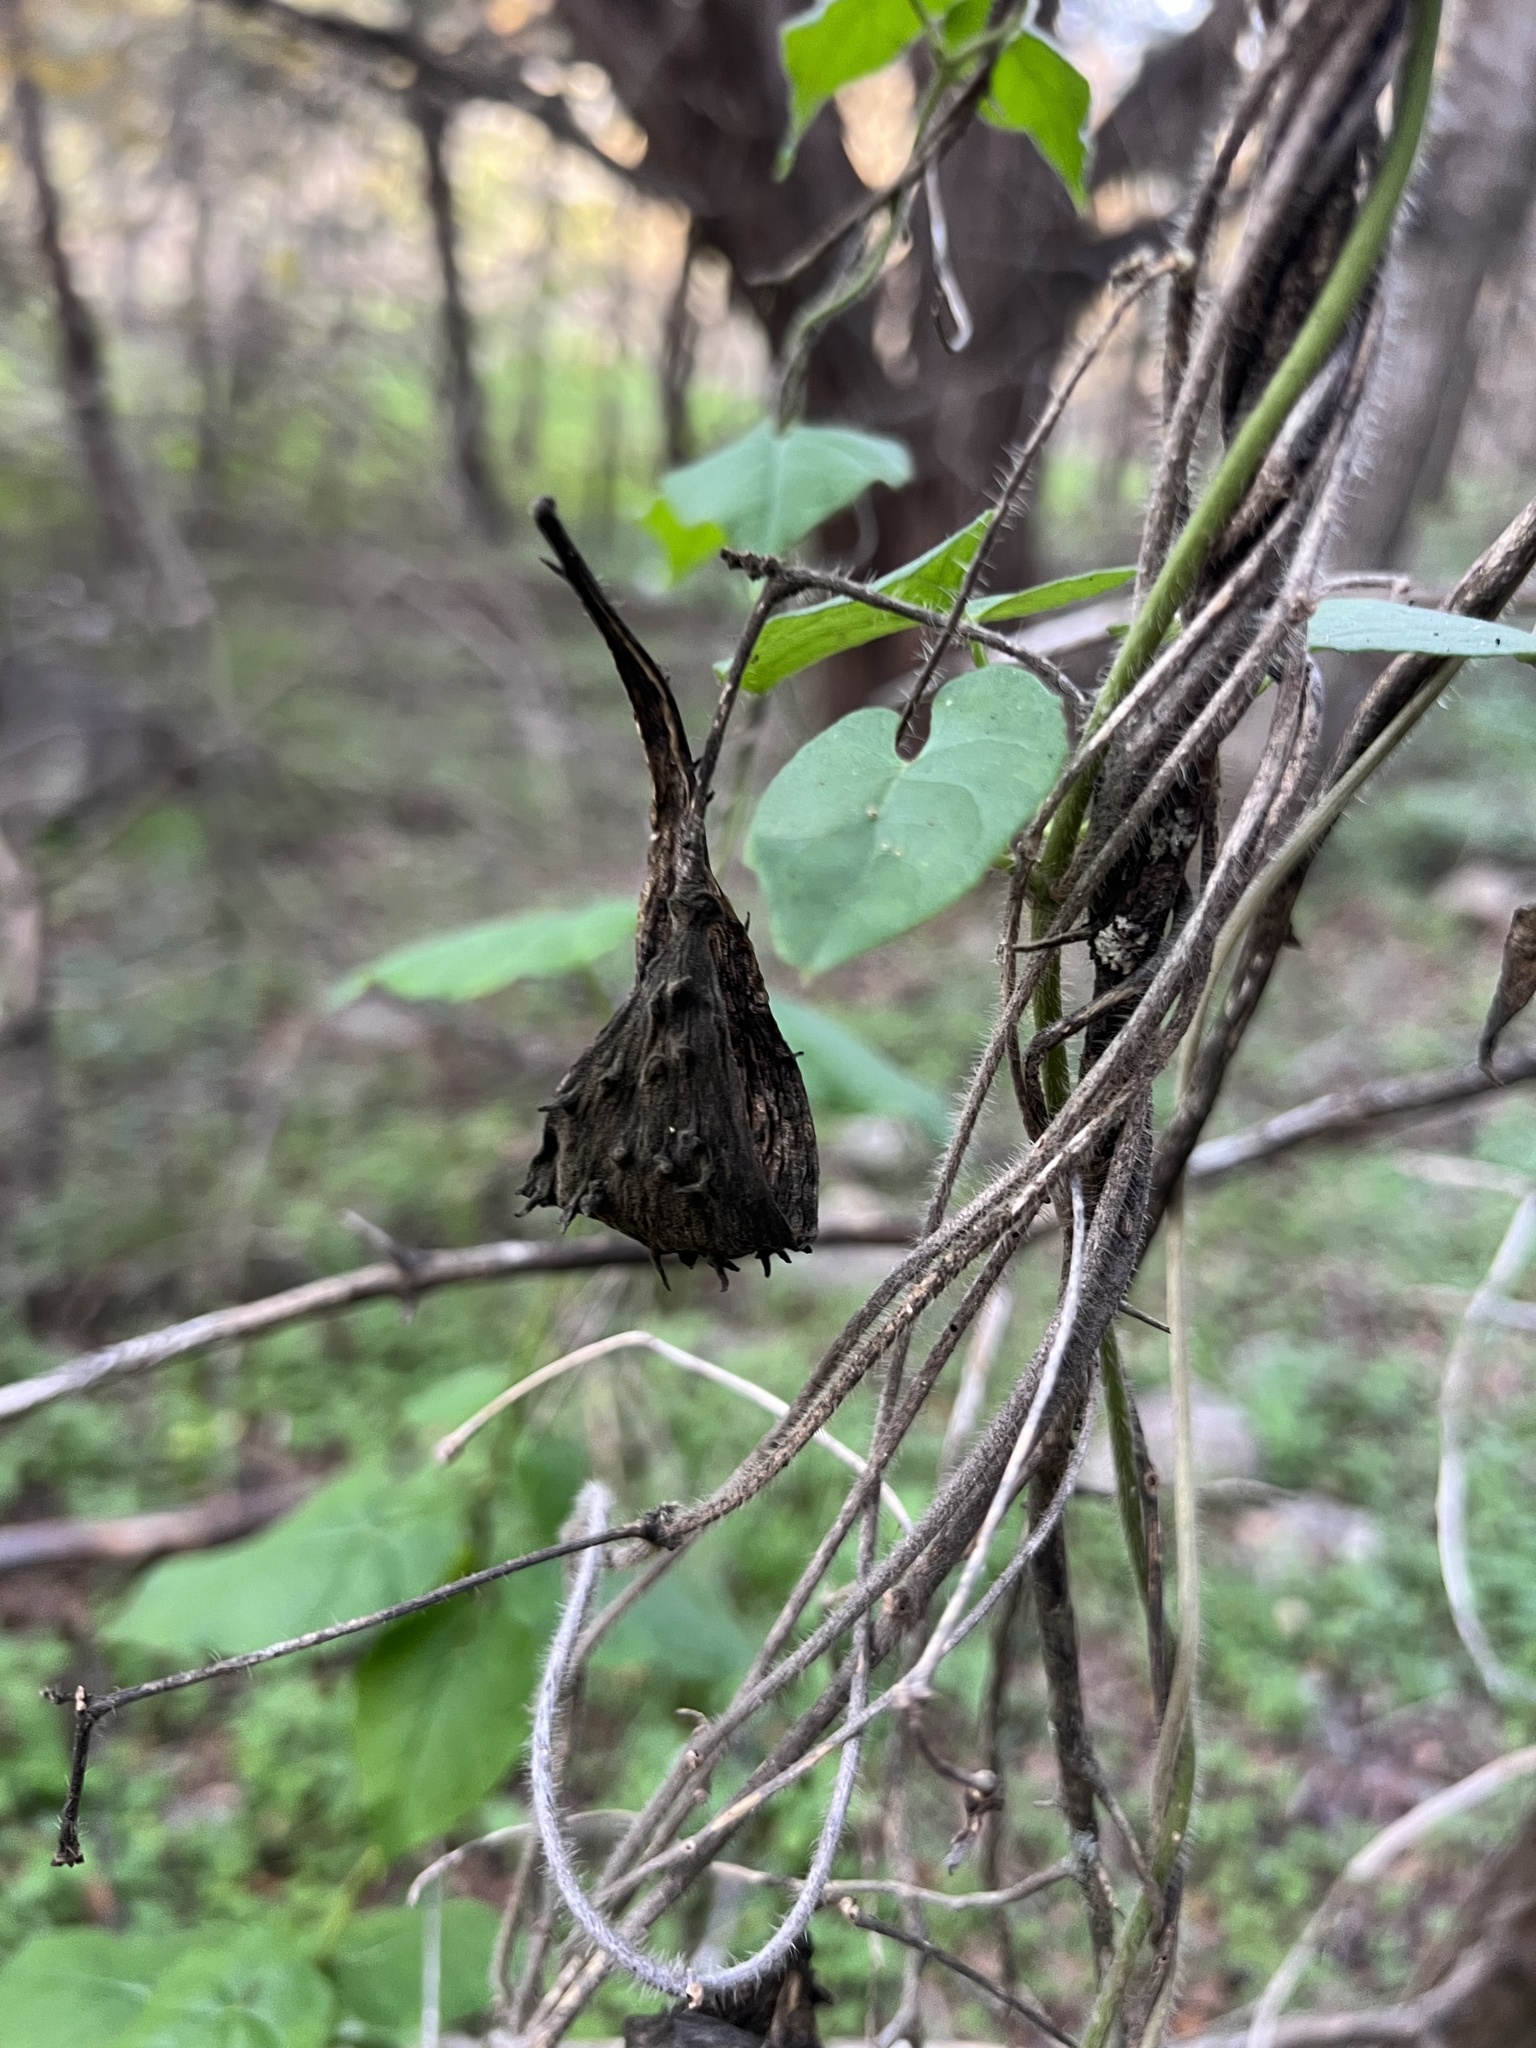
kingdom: Plantae
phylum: Tracheophyta
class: Magnoliopsida
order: Gentianales
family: Apocynaceae
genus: Dictyanthus
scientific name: Dictyanthus reticulatus
